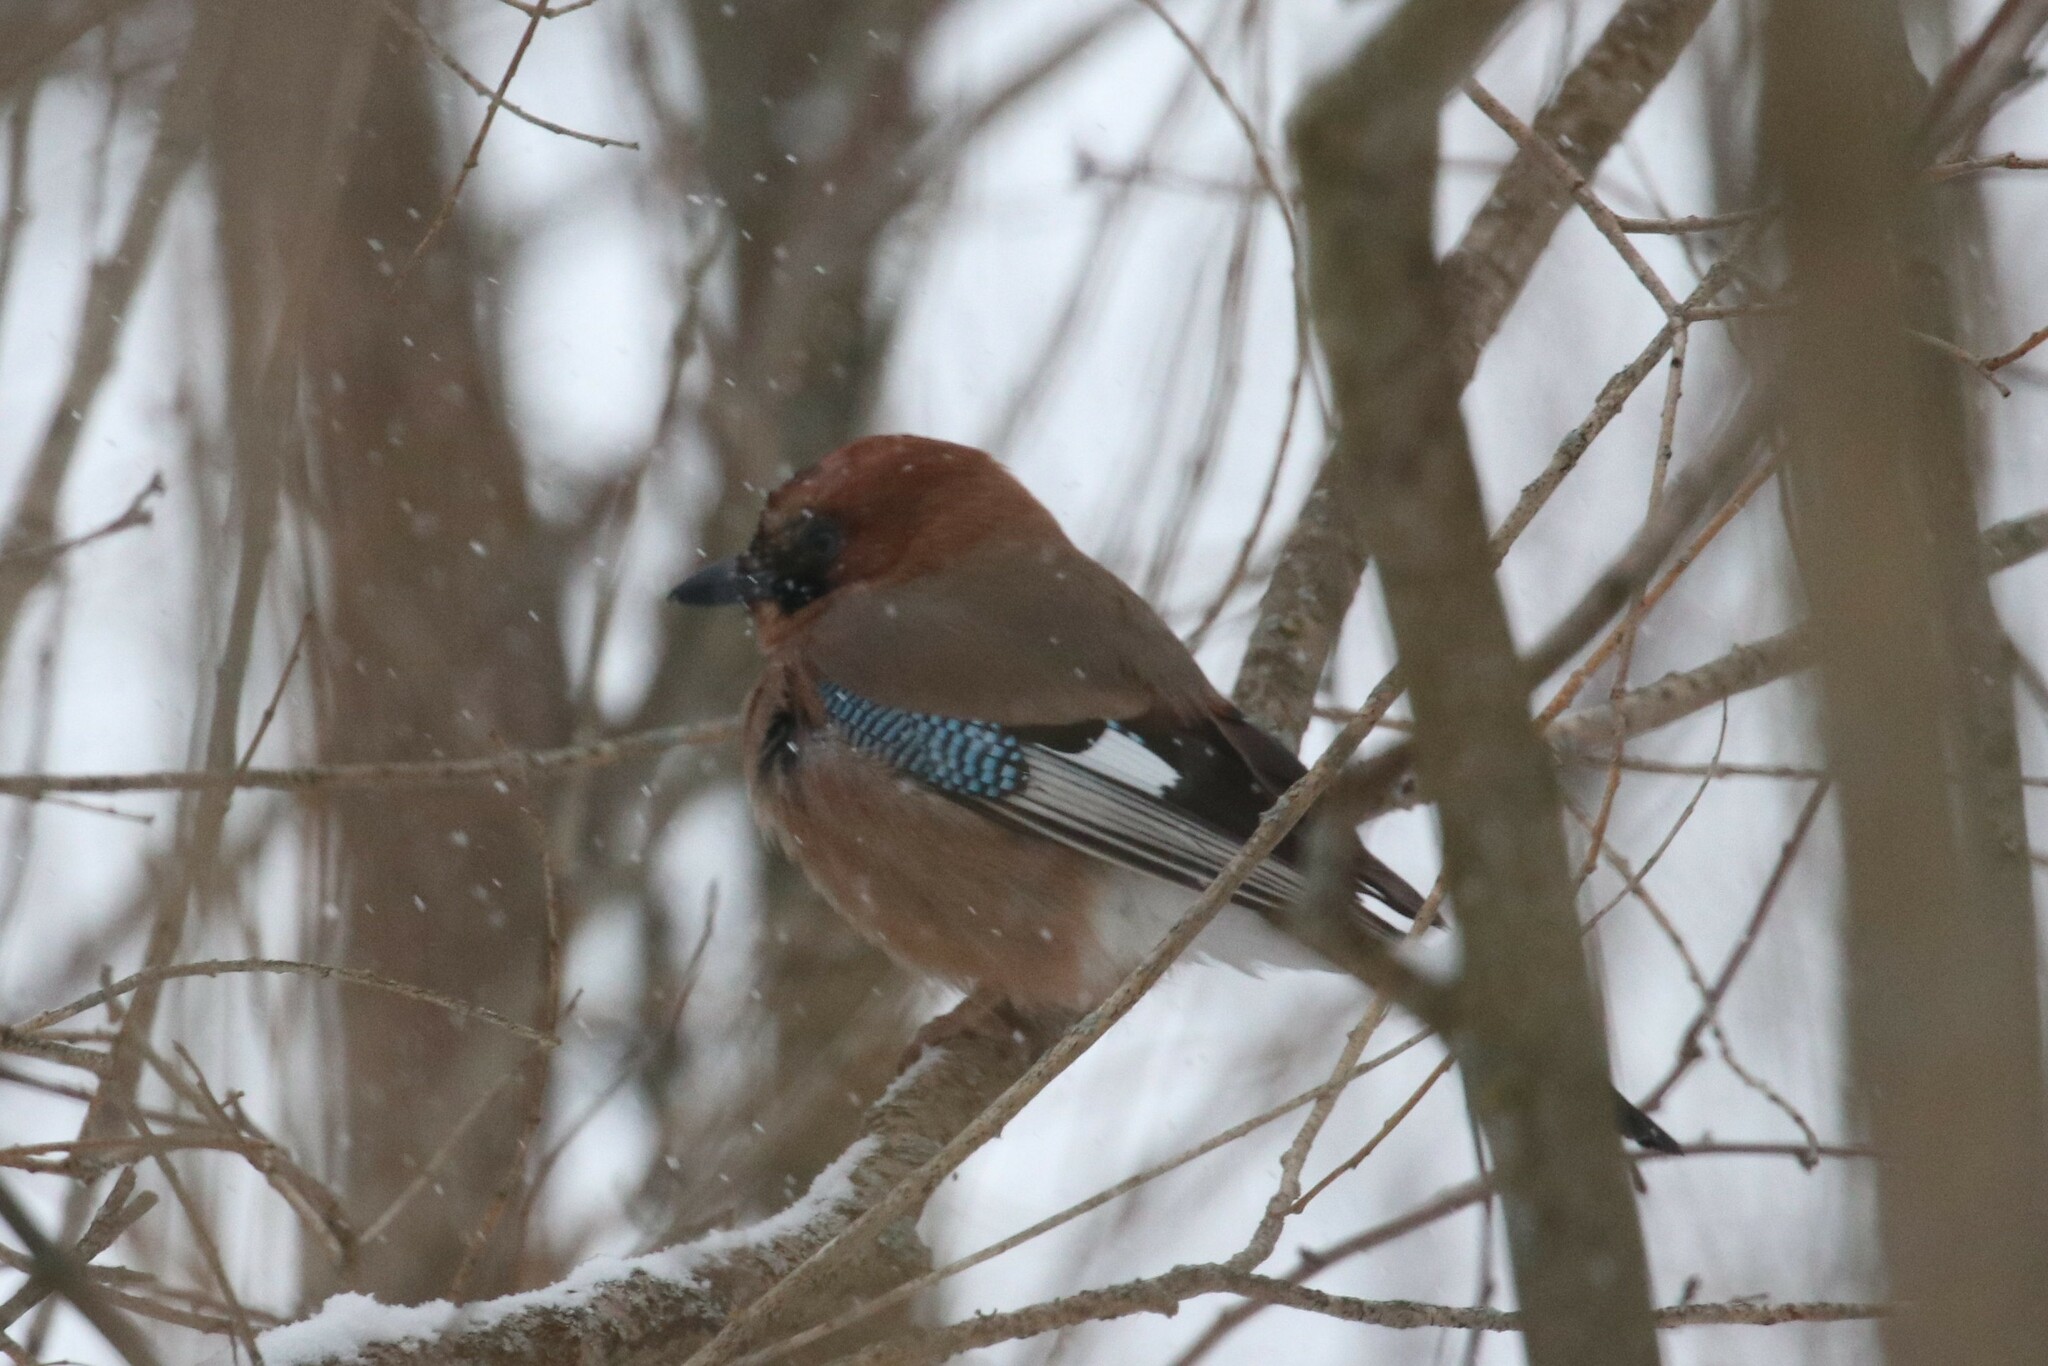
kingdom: Animalia
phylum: Chordata
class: Aves
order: Passeriformes
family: Corvidae
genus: Garrulus
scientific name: Garrulus glandarius
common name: Eurasian jay
